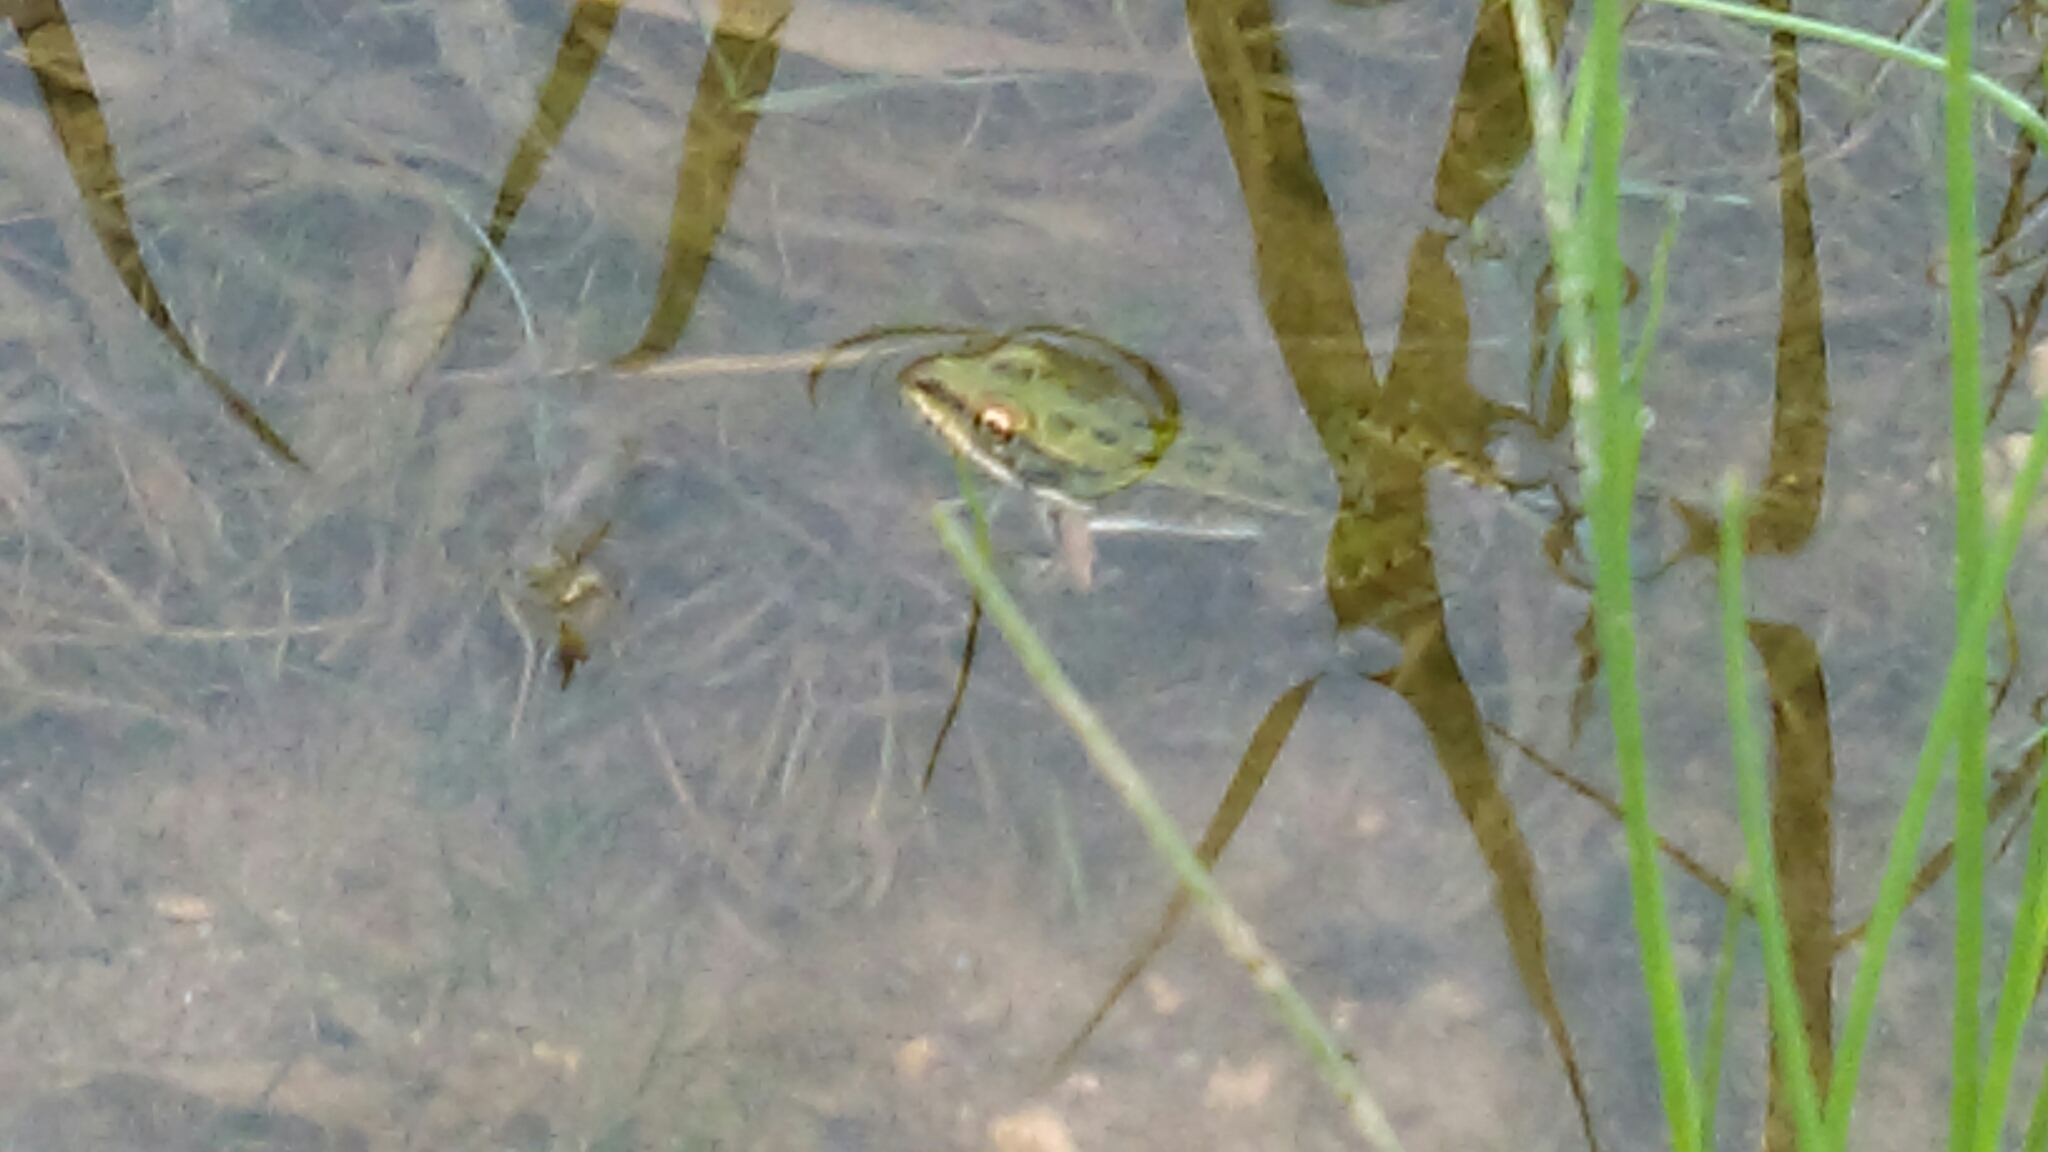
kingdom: Animalia
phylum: Chordata
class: Amphibia
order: Anura
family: Ranidae
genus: Lithobates
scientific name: Lithobates pipiens
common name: Northern leopard frog
